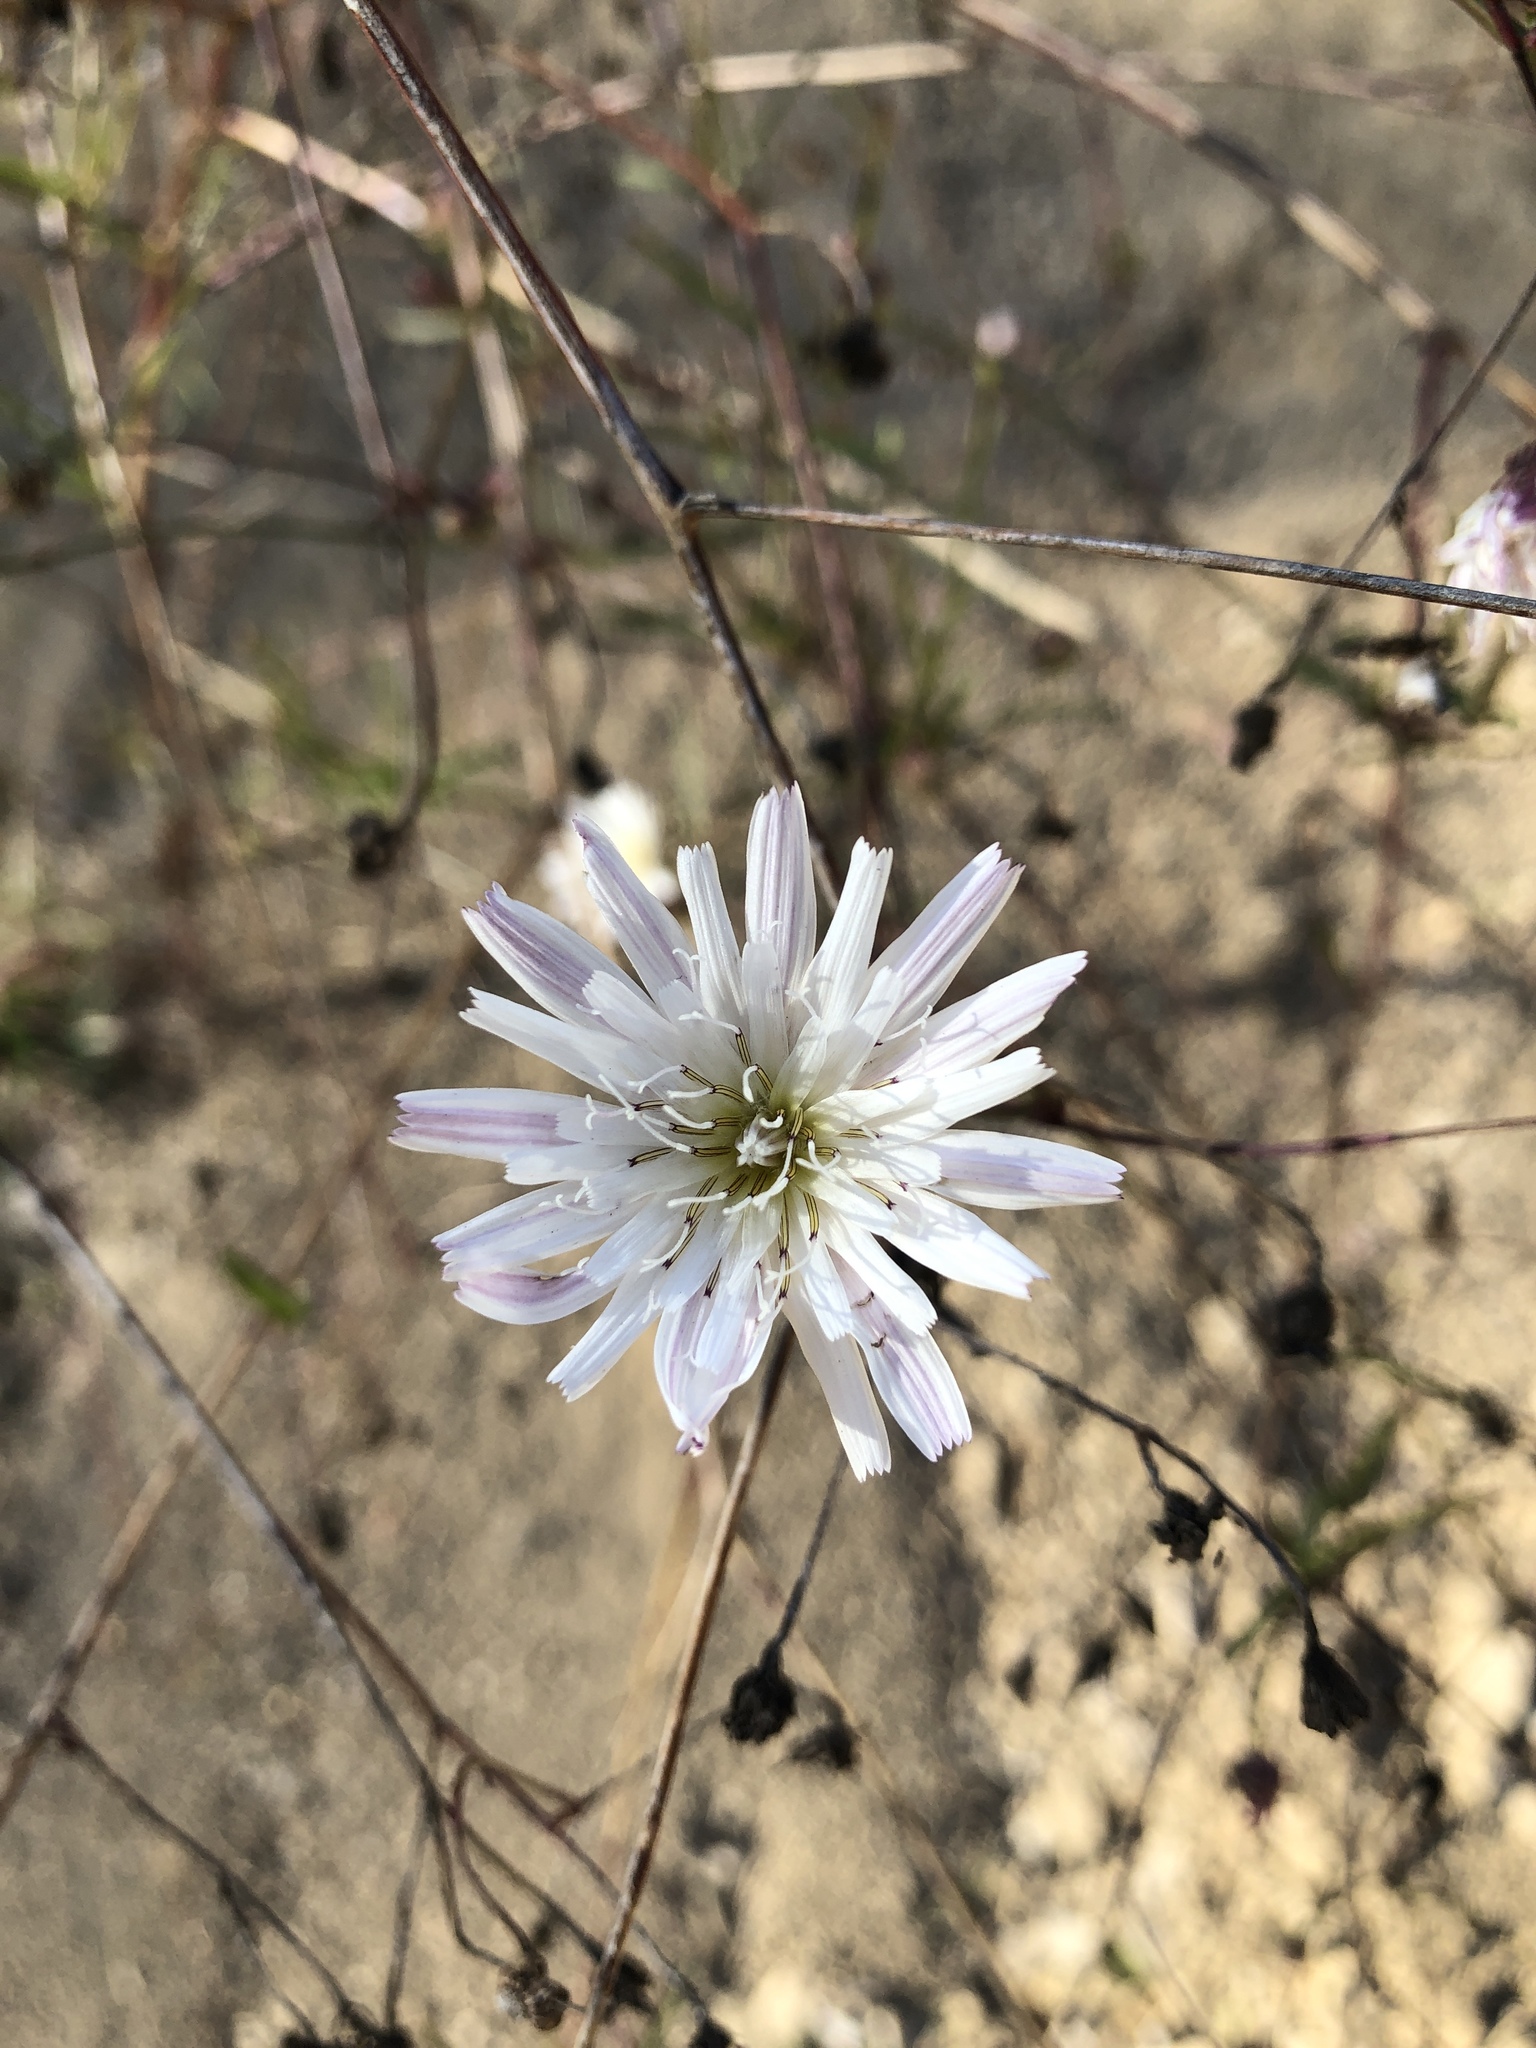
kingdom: Plantae
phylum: Tracheophyta
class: Magnoliopsida
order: Asterales
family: Asteraceae
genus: Malacothrix
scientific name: Malacothrix saxatilis
